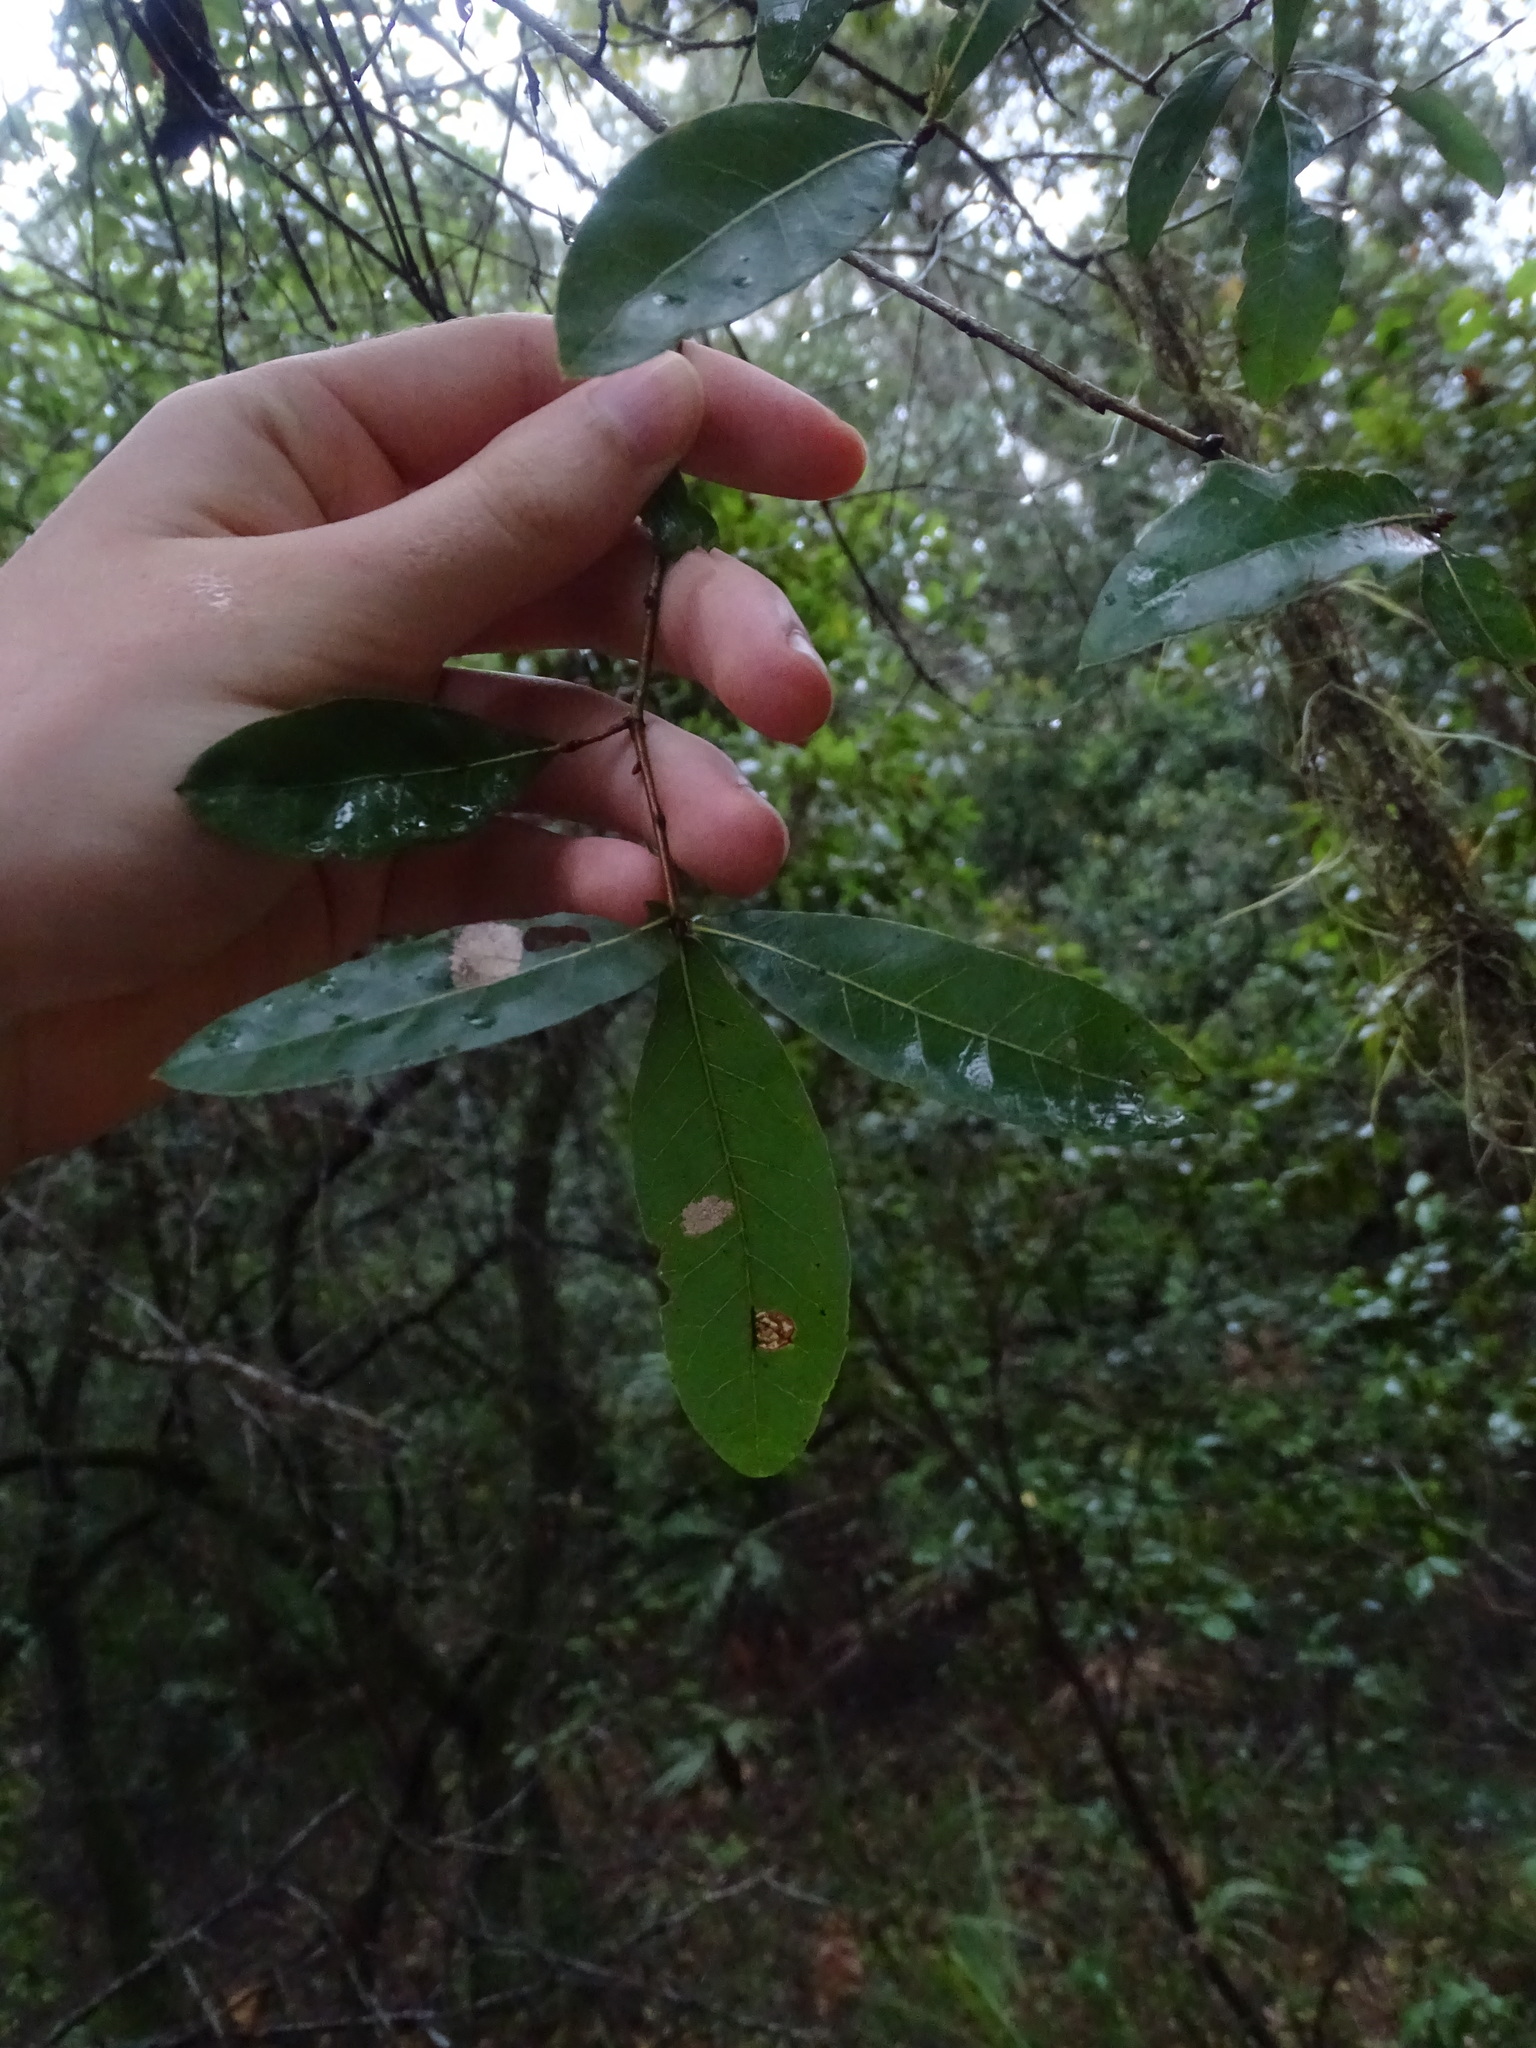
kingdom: Plantae
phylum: Tracheophyta
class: Magnoliopsida
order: Fagales
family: Fagaceae
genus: Quercus
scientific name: Quercus laurifolia
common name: Swamp laurel oak
